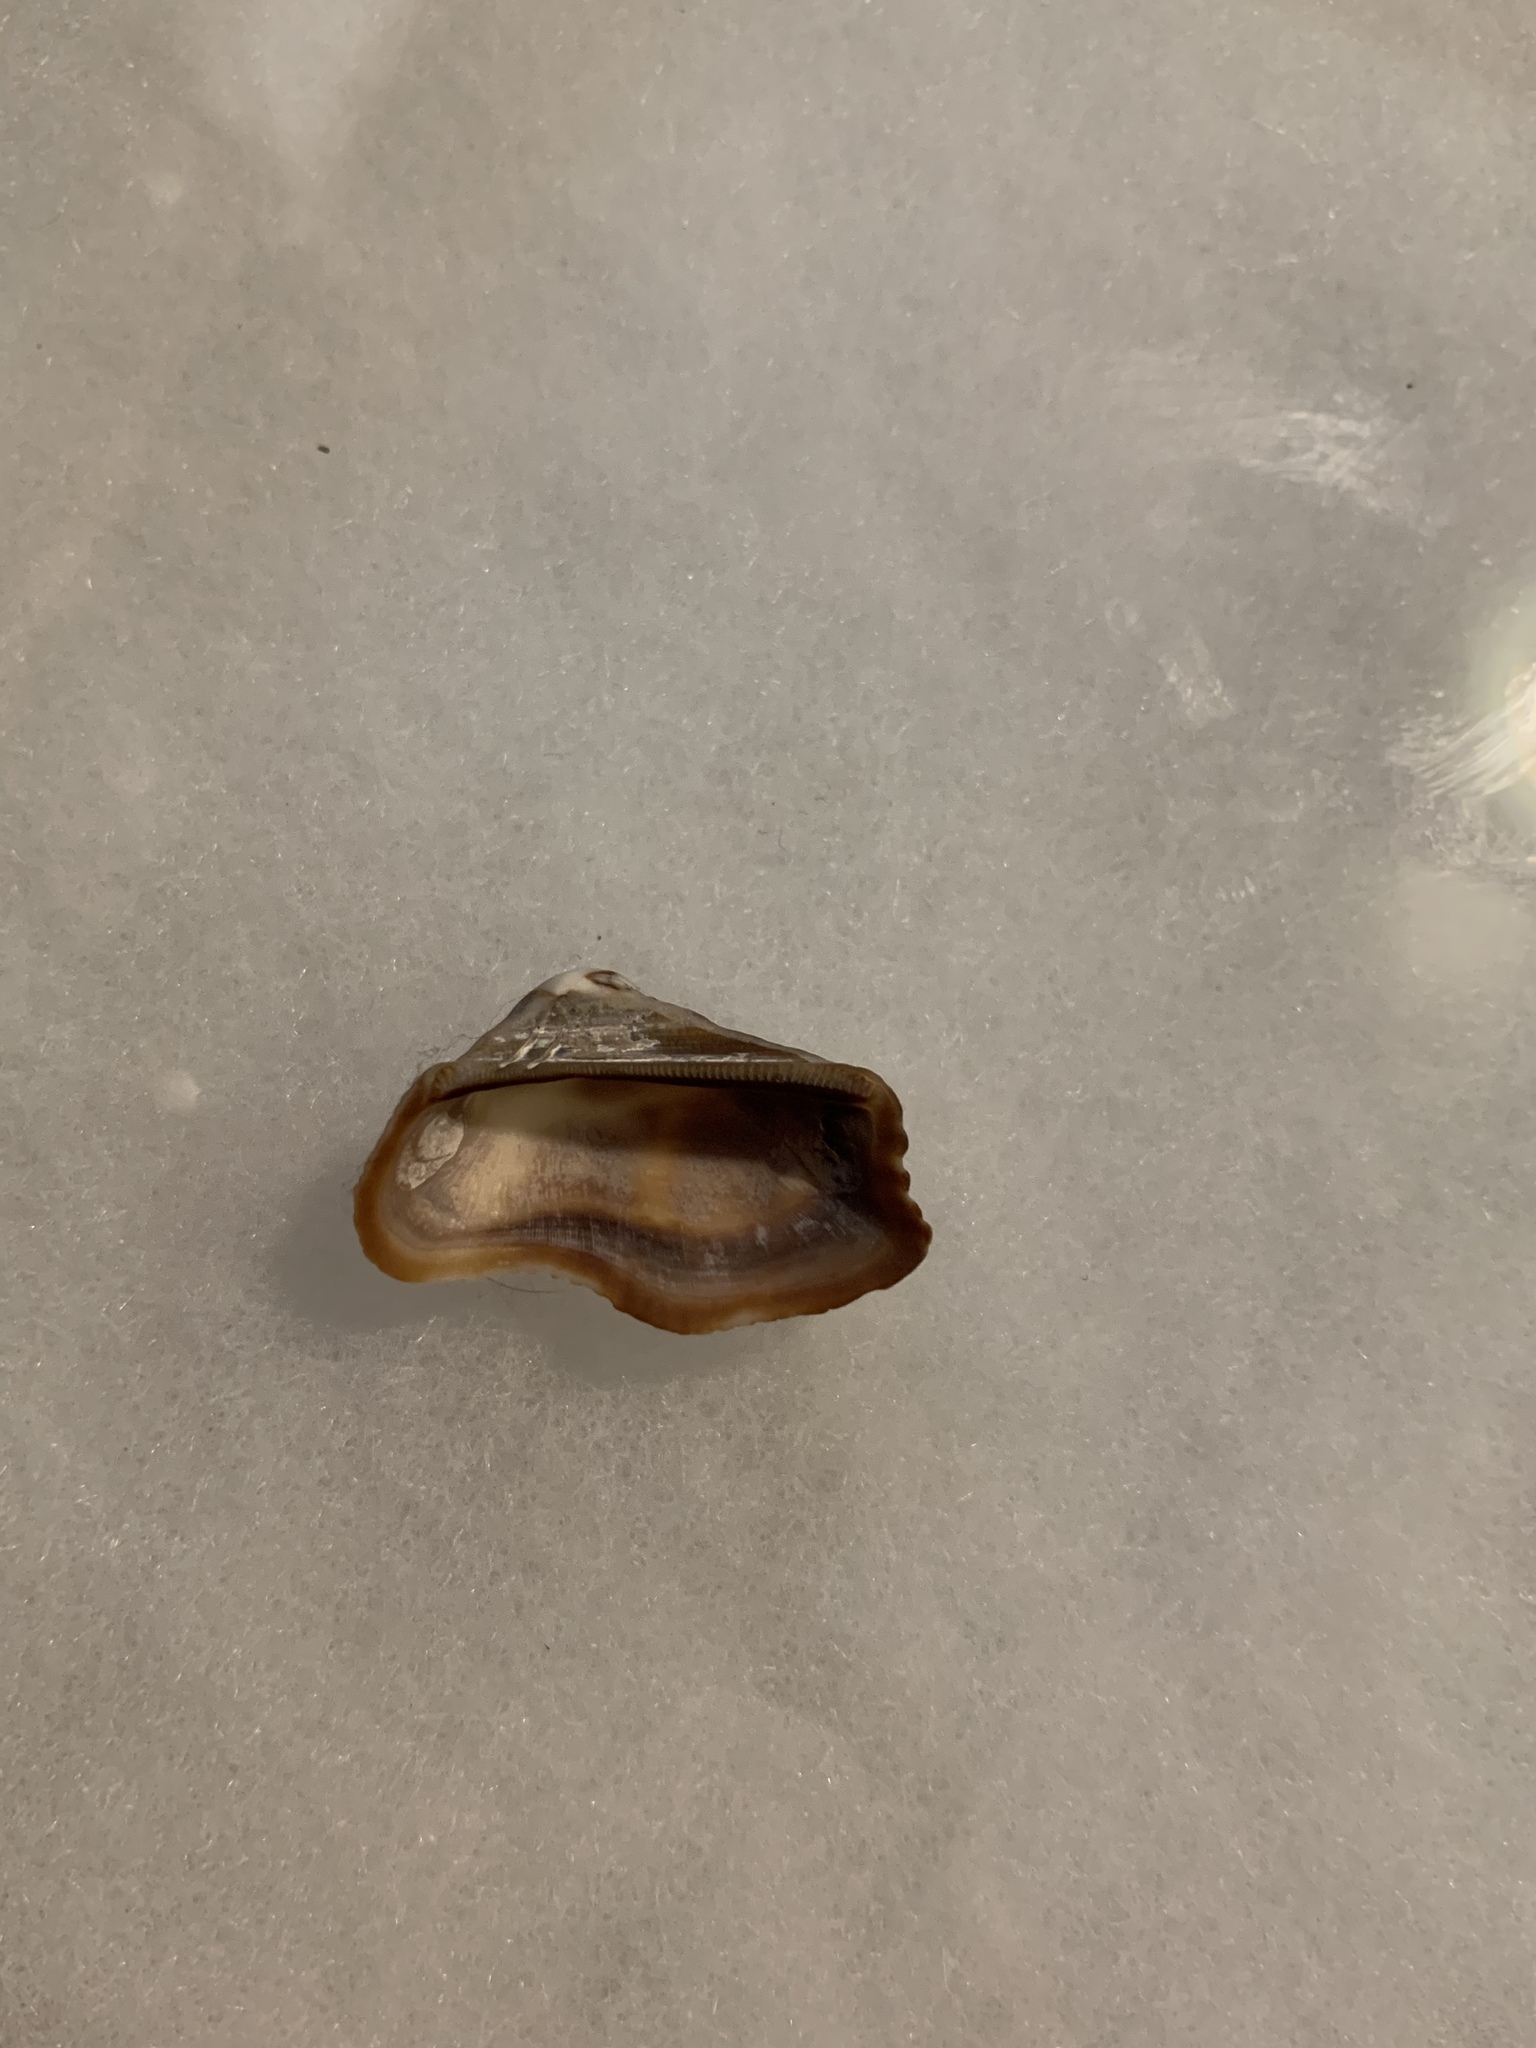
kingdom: Animalia
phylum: Mollusca
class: Bivalvia
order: Arcida
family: Arcidae
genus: Lamarcka
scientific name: Lamarcka imbricata
